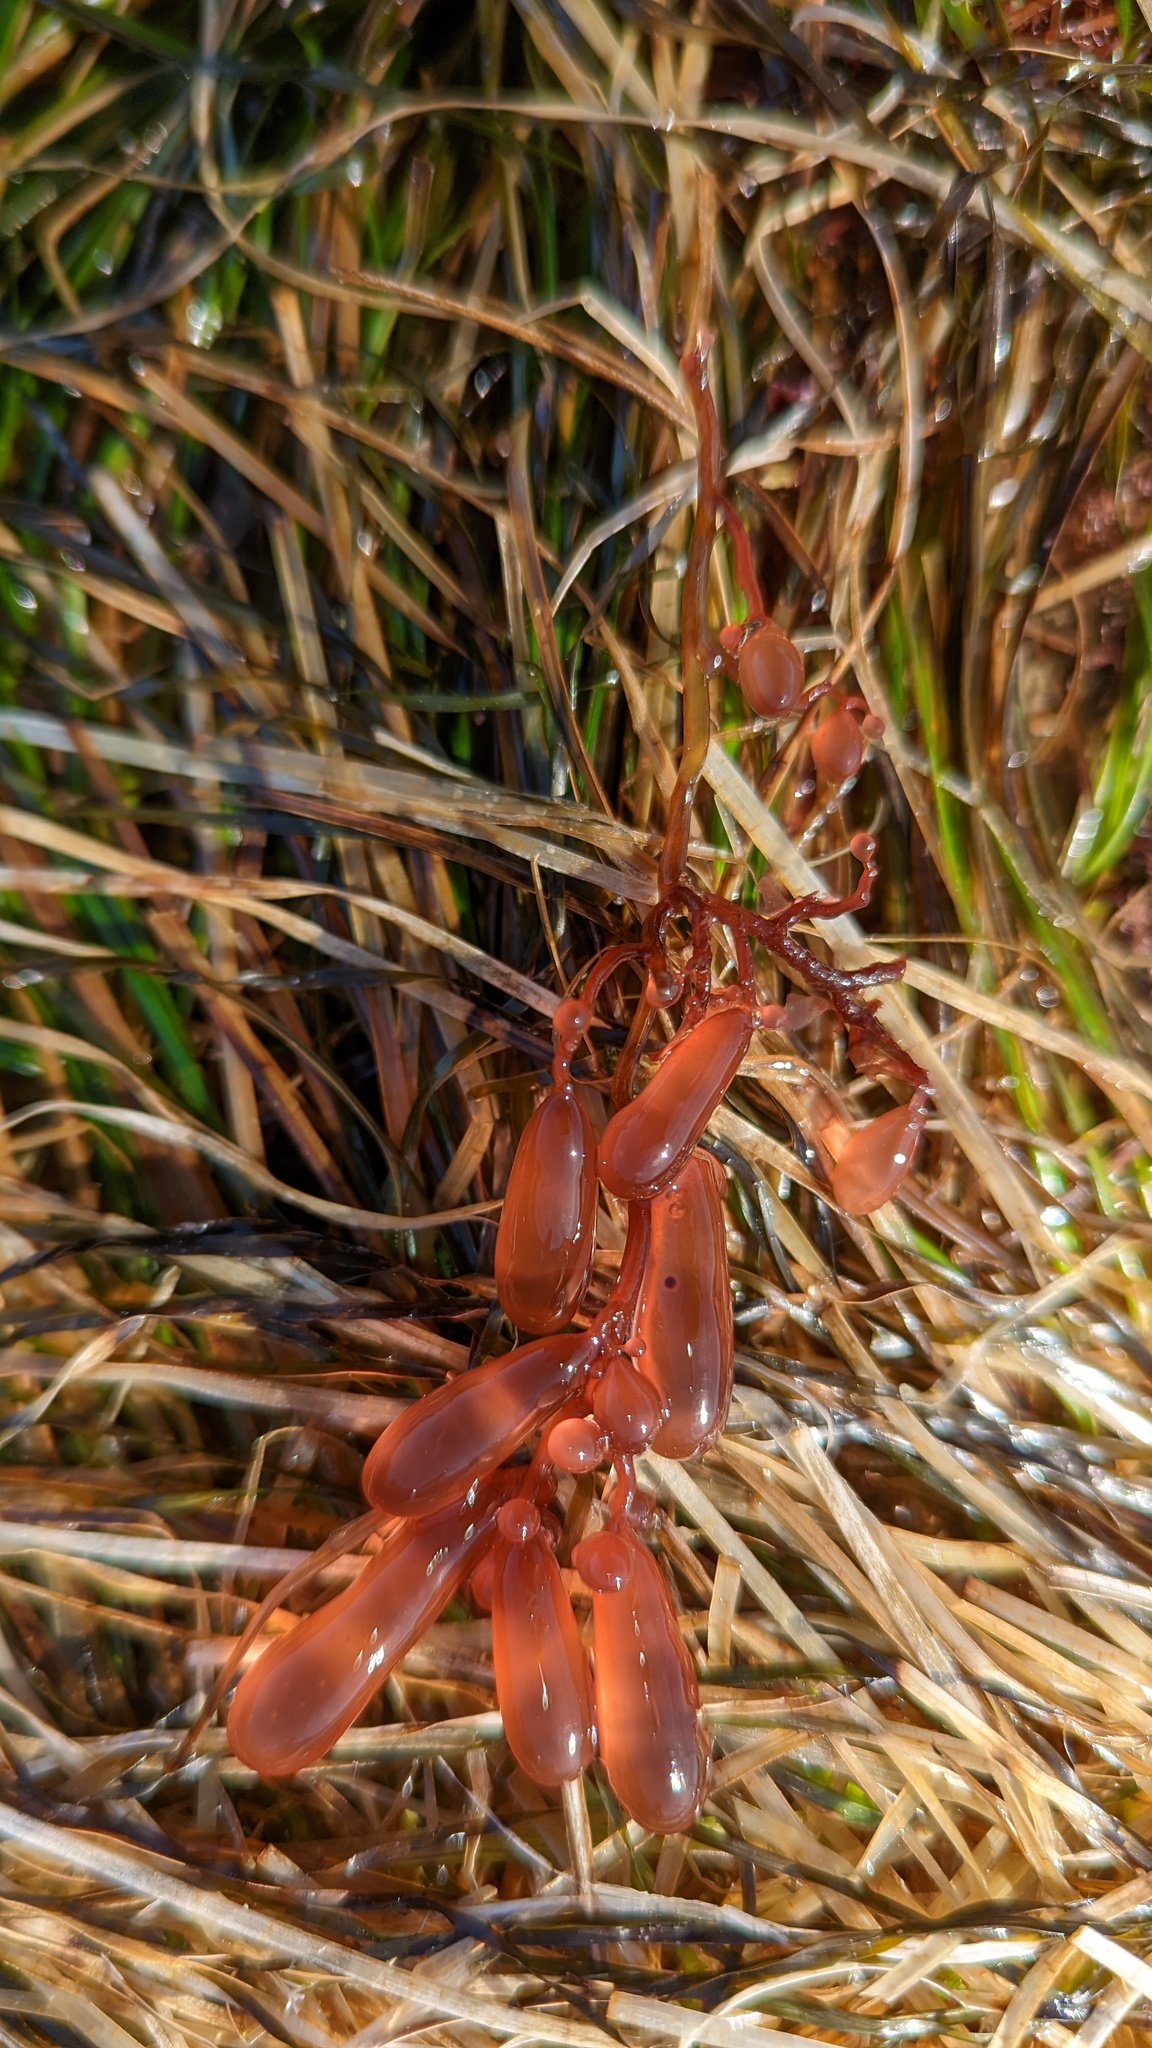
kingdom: Plantae
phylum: Rhodophyta
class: Florideophyceae
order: Rhodymeniales
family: Rhodymeniaceae
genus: Botryocladia
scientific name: Botryocladia pseudodichotoma
